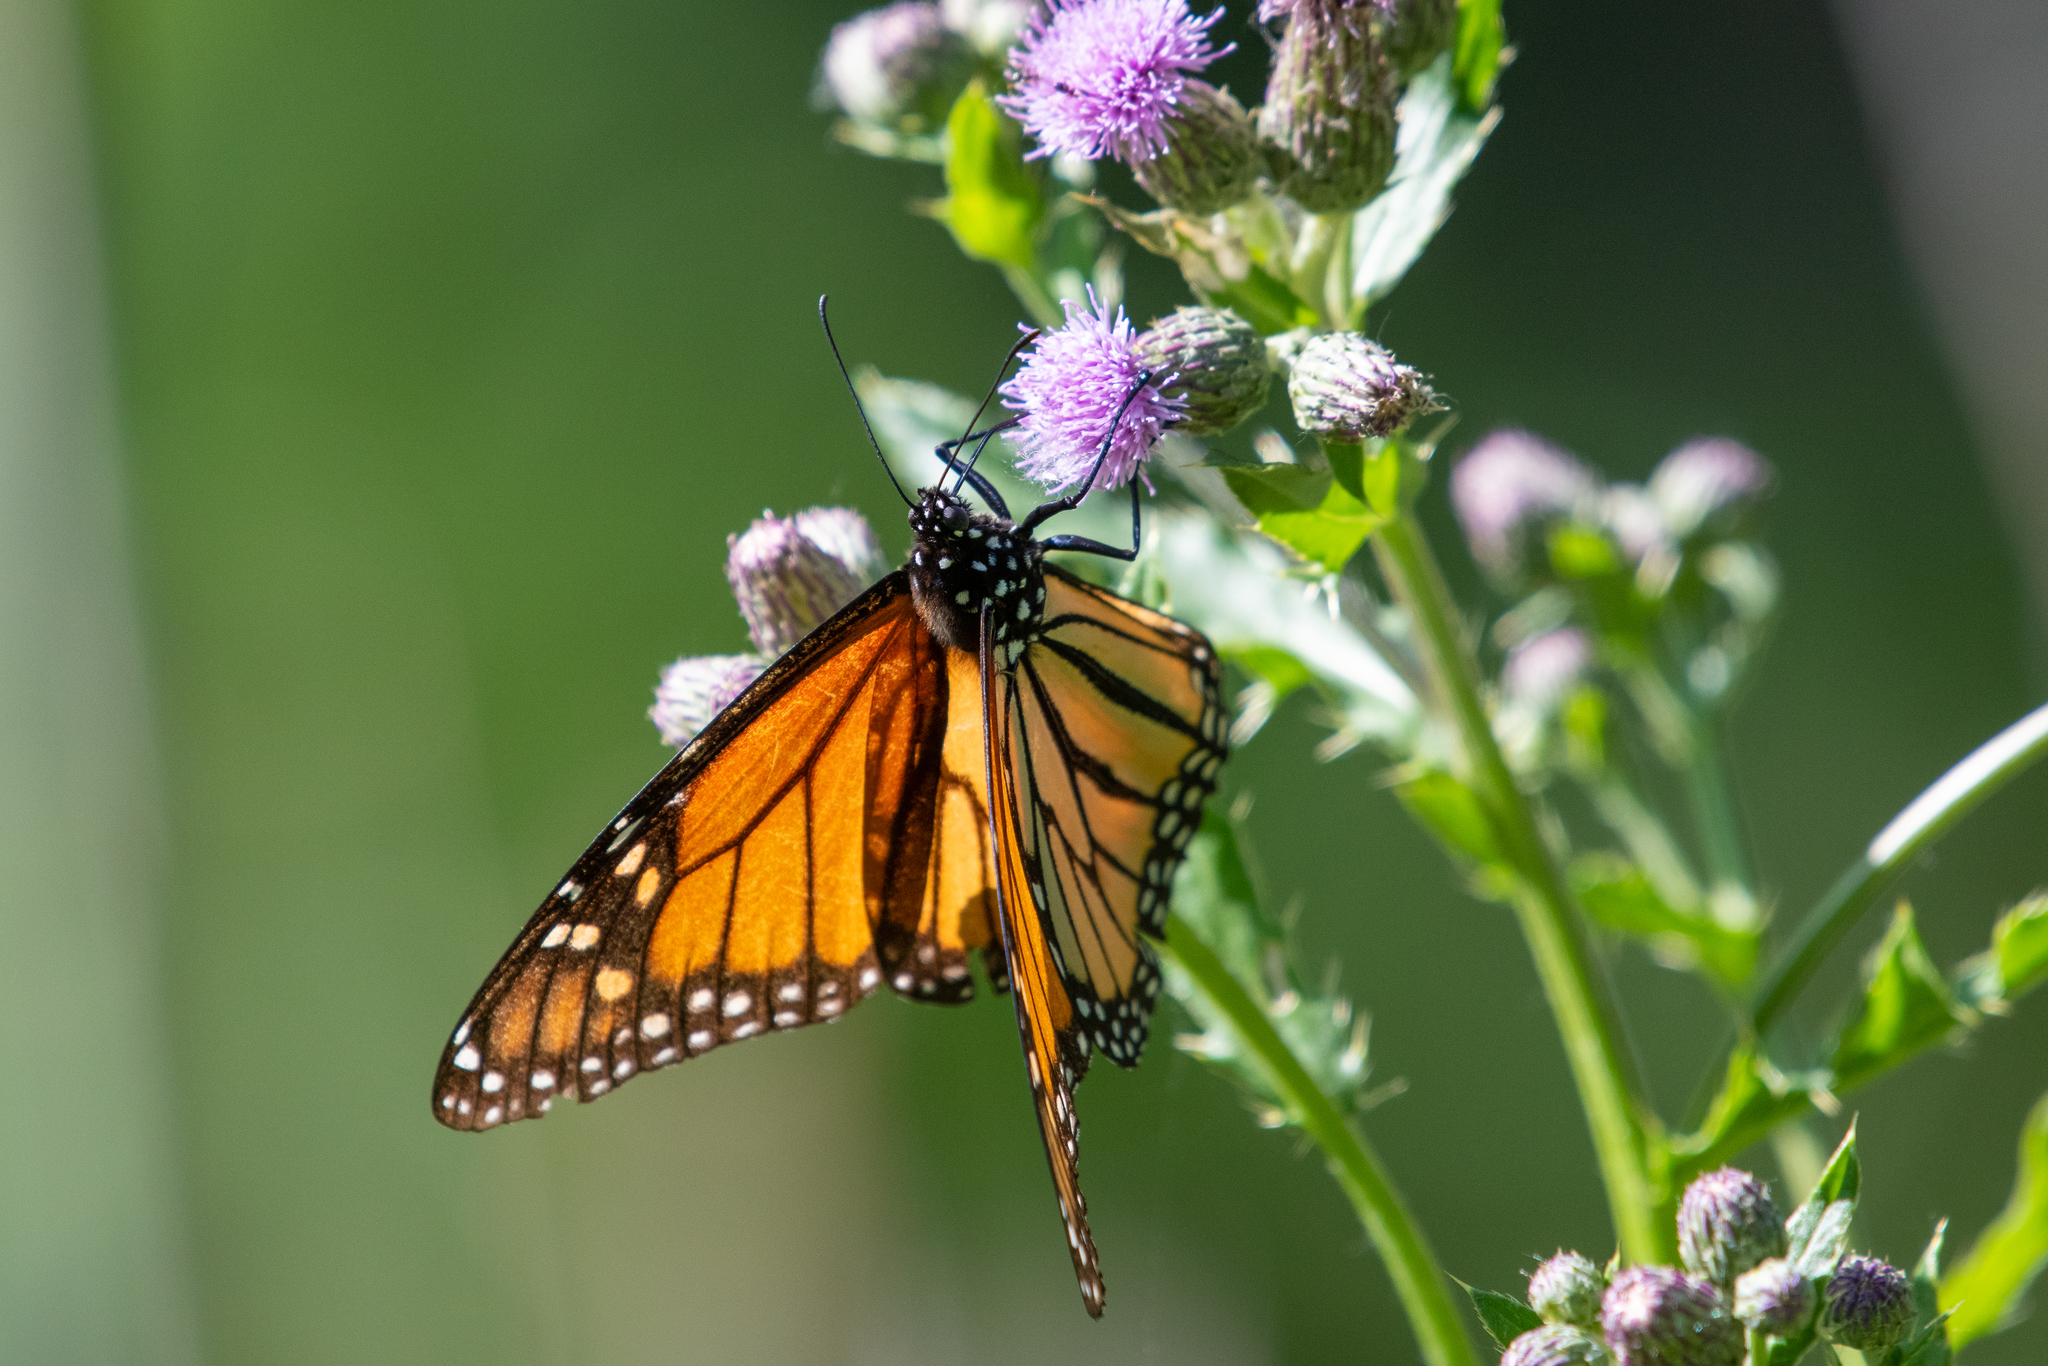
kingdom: Animalia
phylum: Arthropoda
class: Insecta
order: Lepidoptera
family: Nymphalidae
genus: Danaus
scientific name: Danaus plexippus
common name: Monarch
